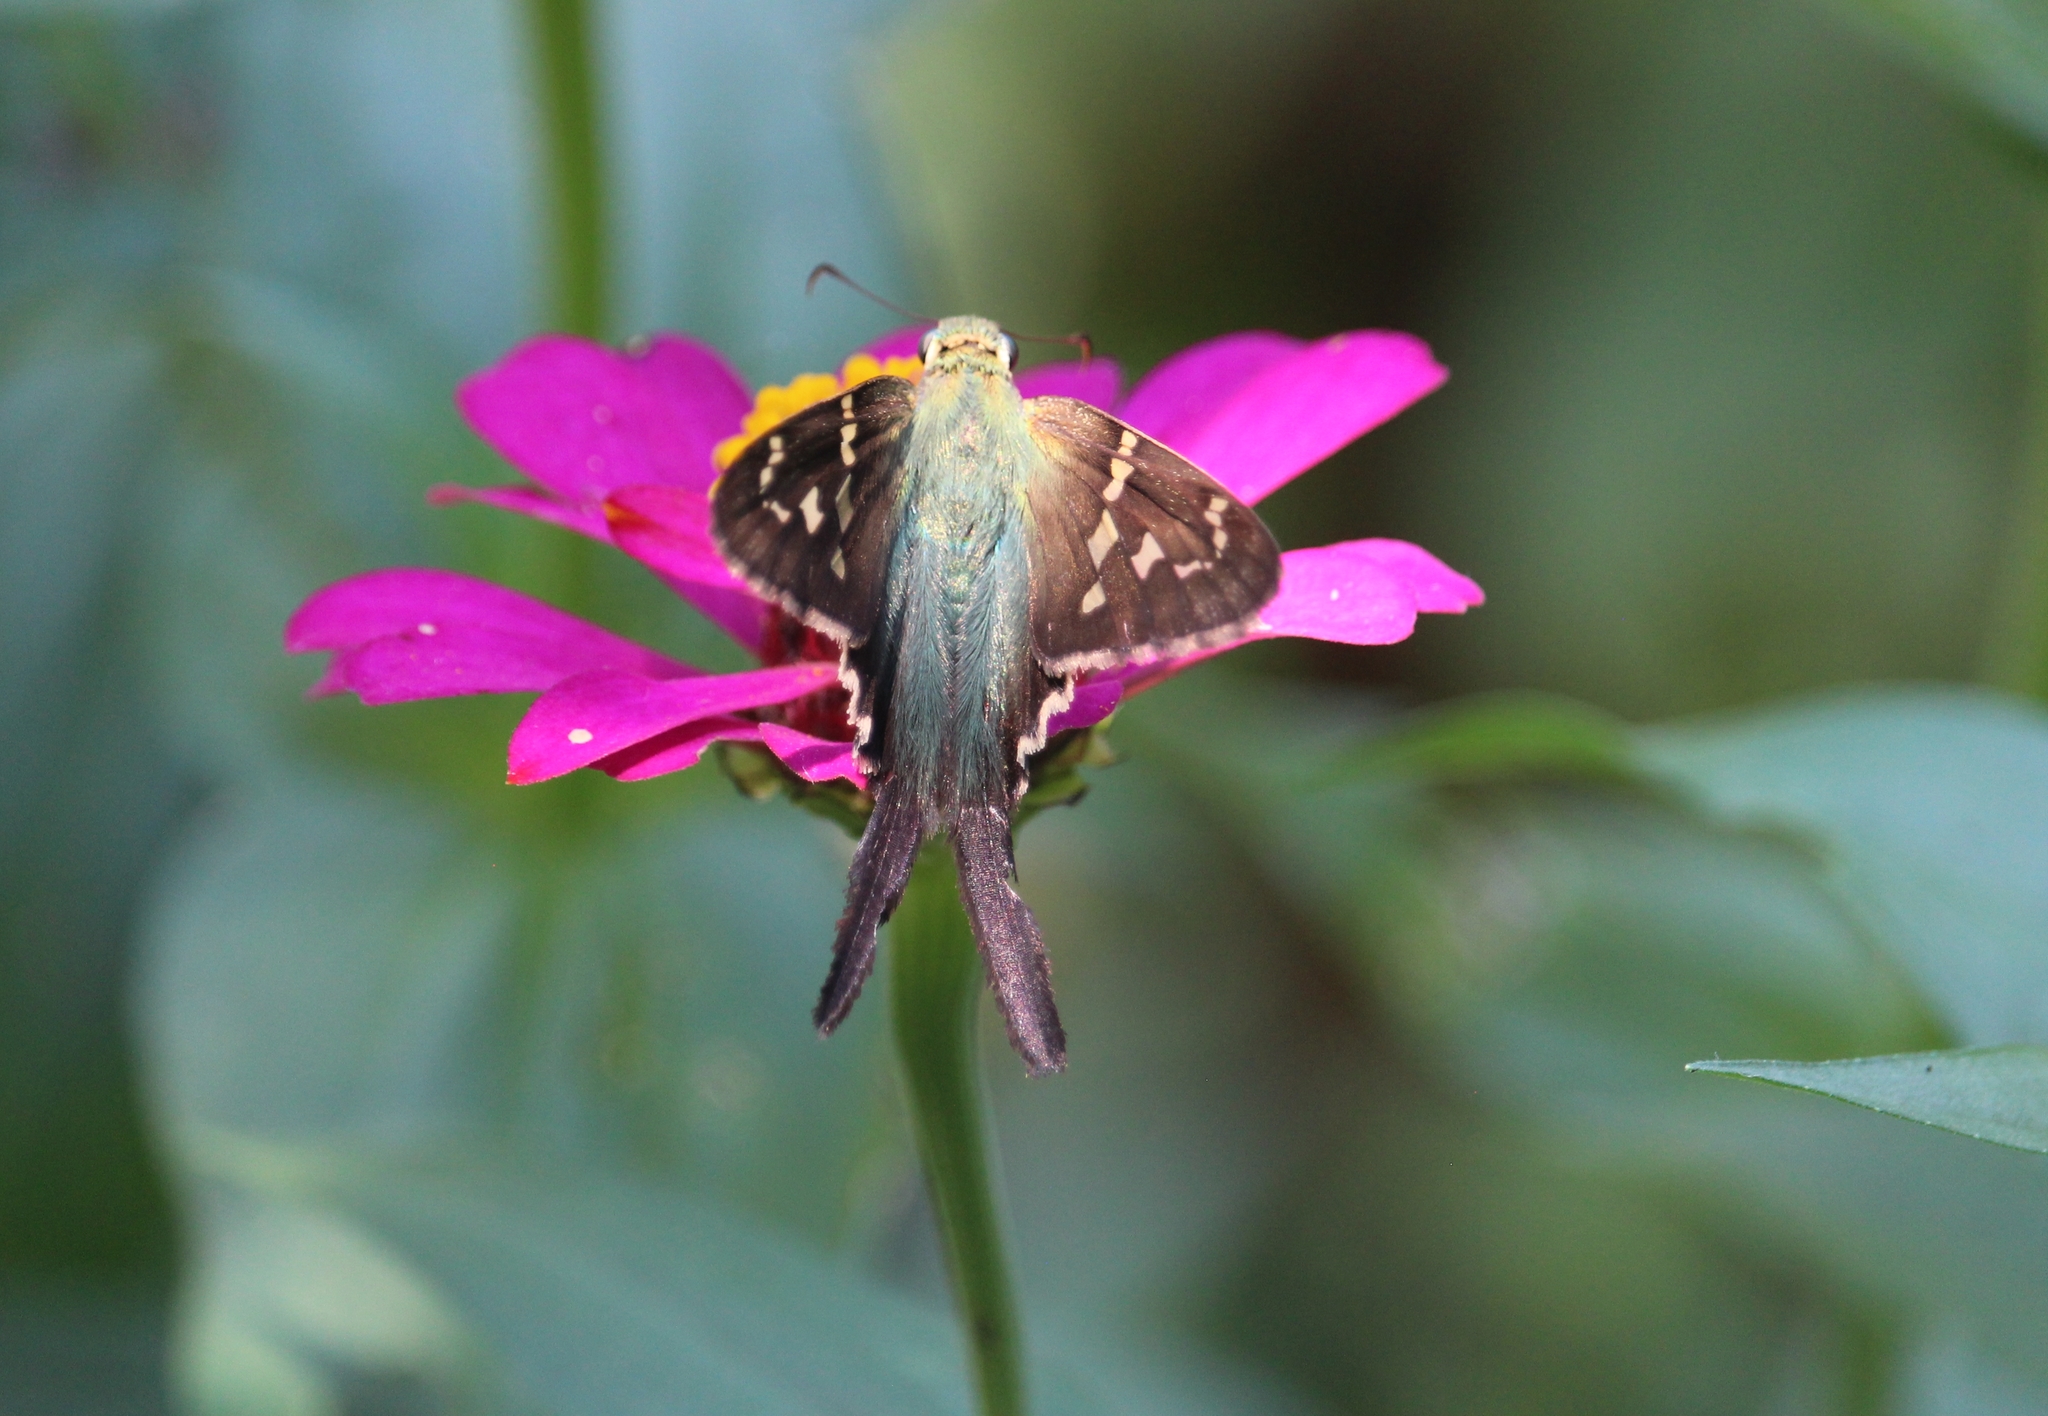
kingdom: Animalia
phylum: Arthropoda
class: Insecta
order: Lepidoptera
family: Hesperiidae
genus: Urbanus
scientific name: Urbanus proteus
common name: Long-tailed skipper
